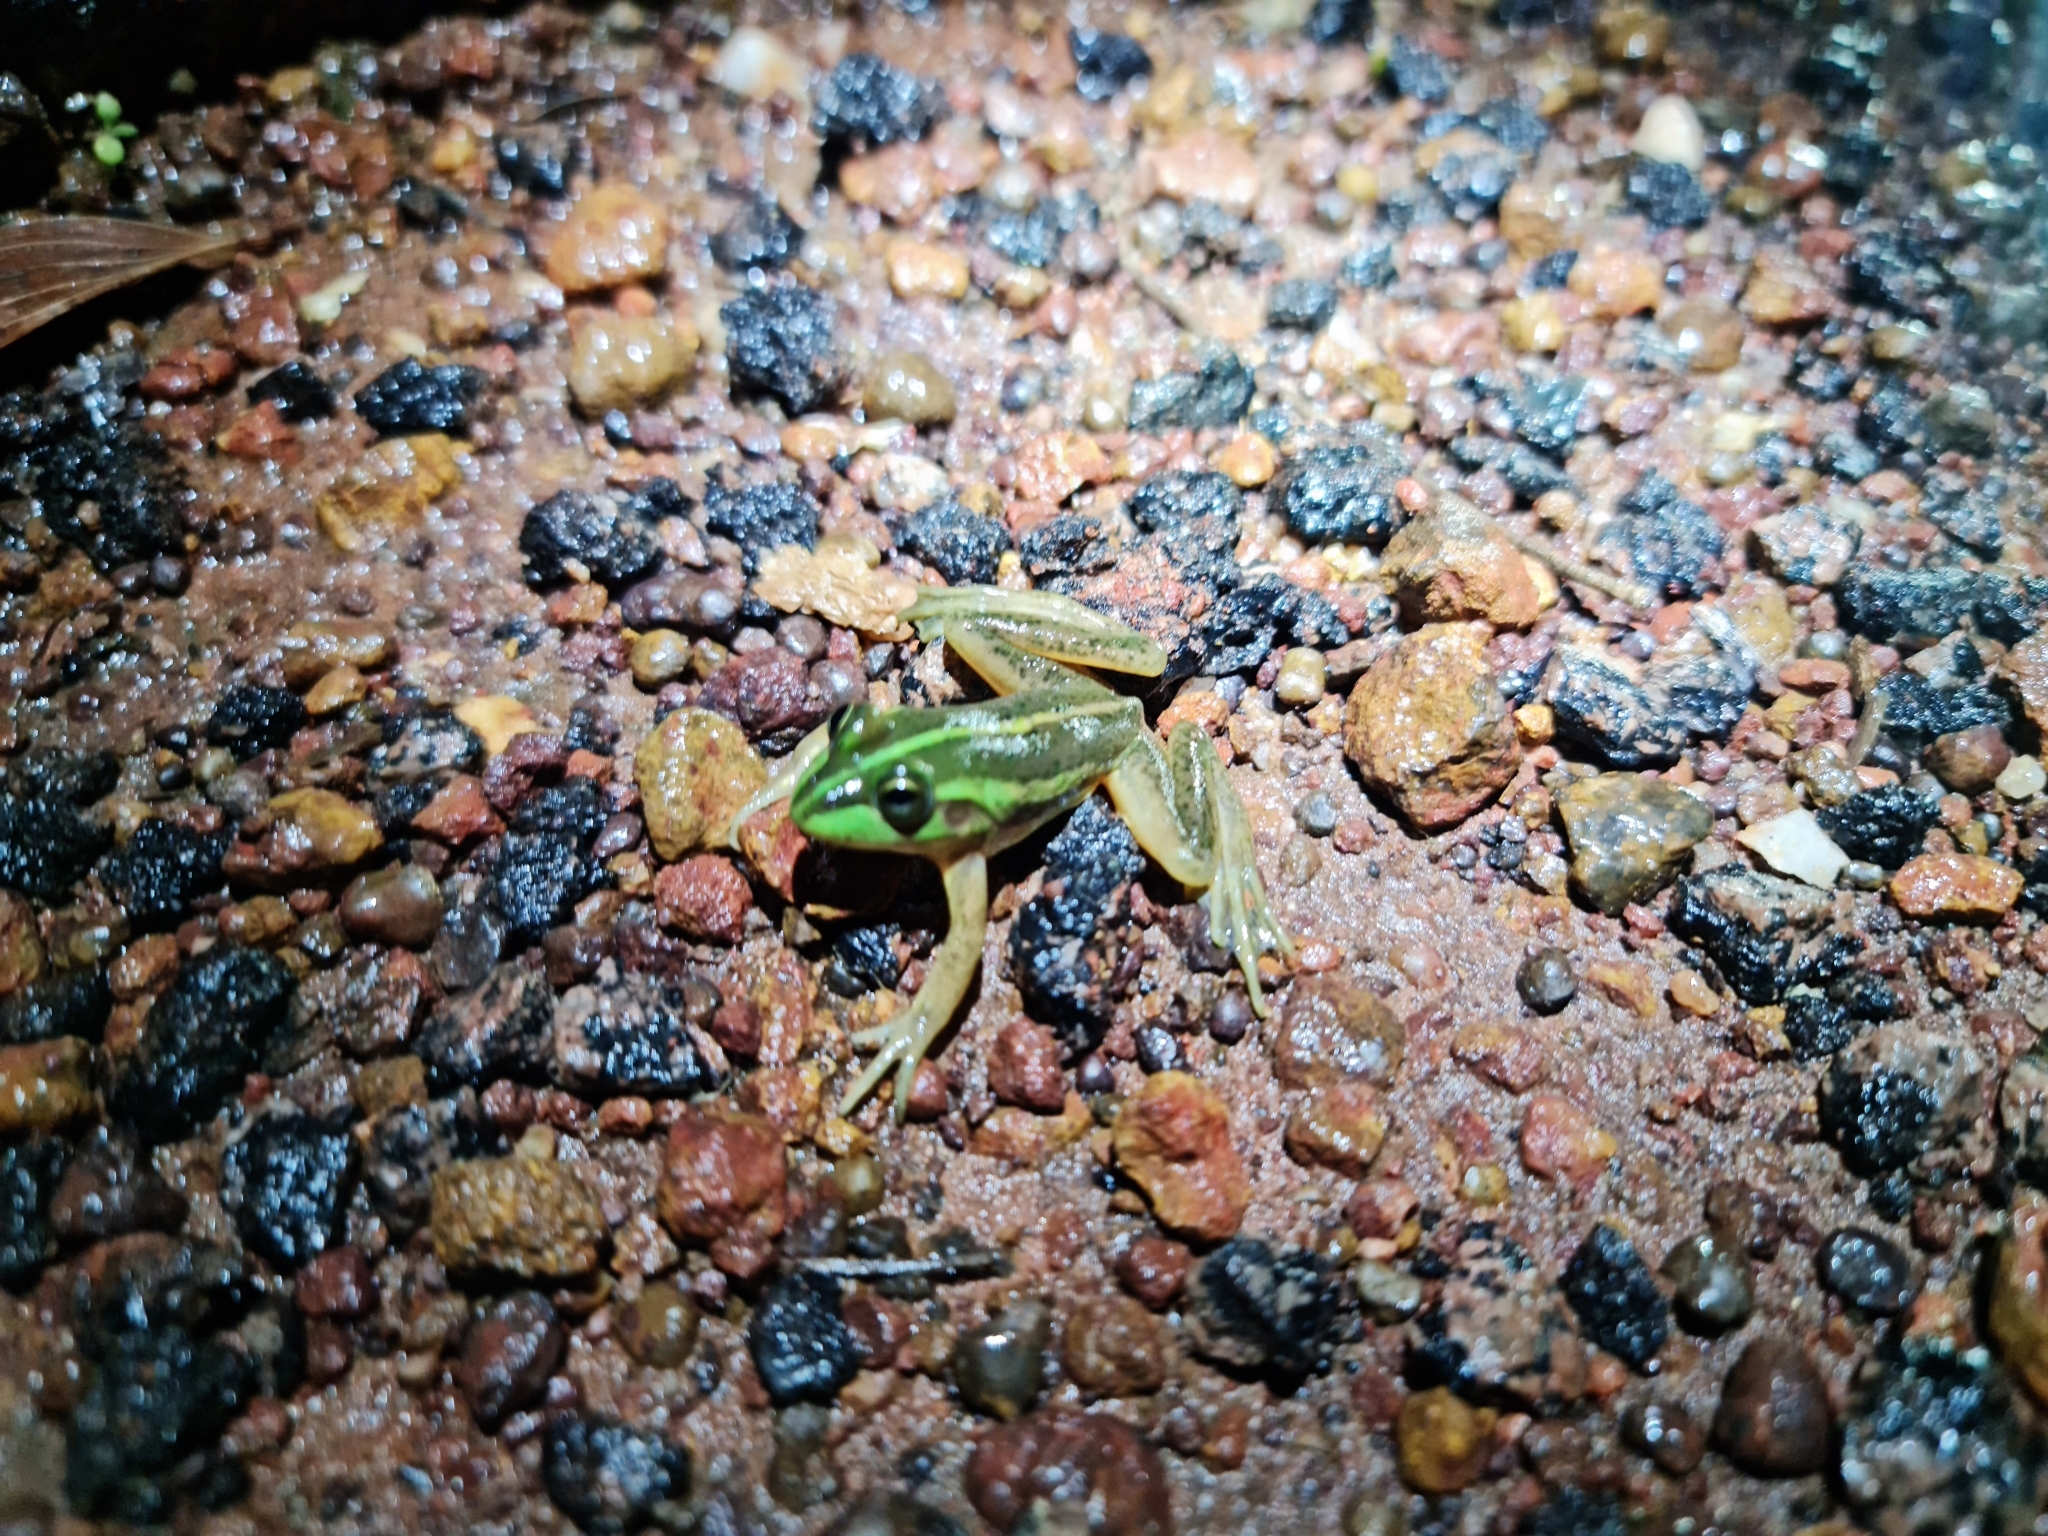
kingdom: Animalia
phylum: Chordata
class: Amphibia
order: Anura
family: Pelodryadidae
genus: Ranoidea
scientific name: Ranoidea dahlii
